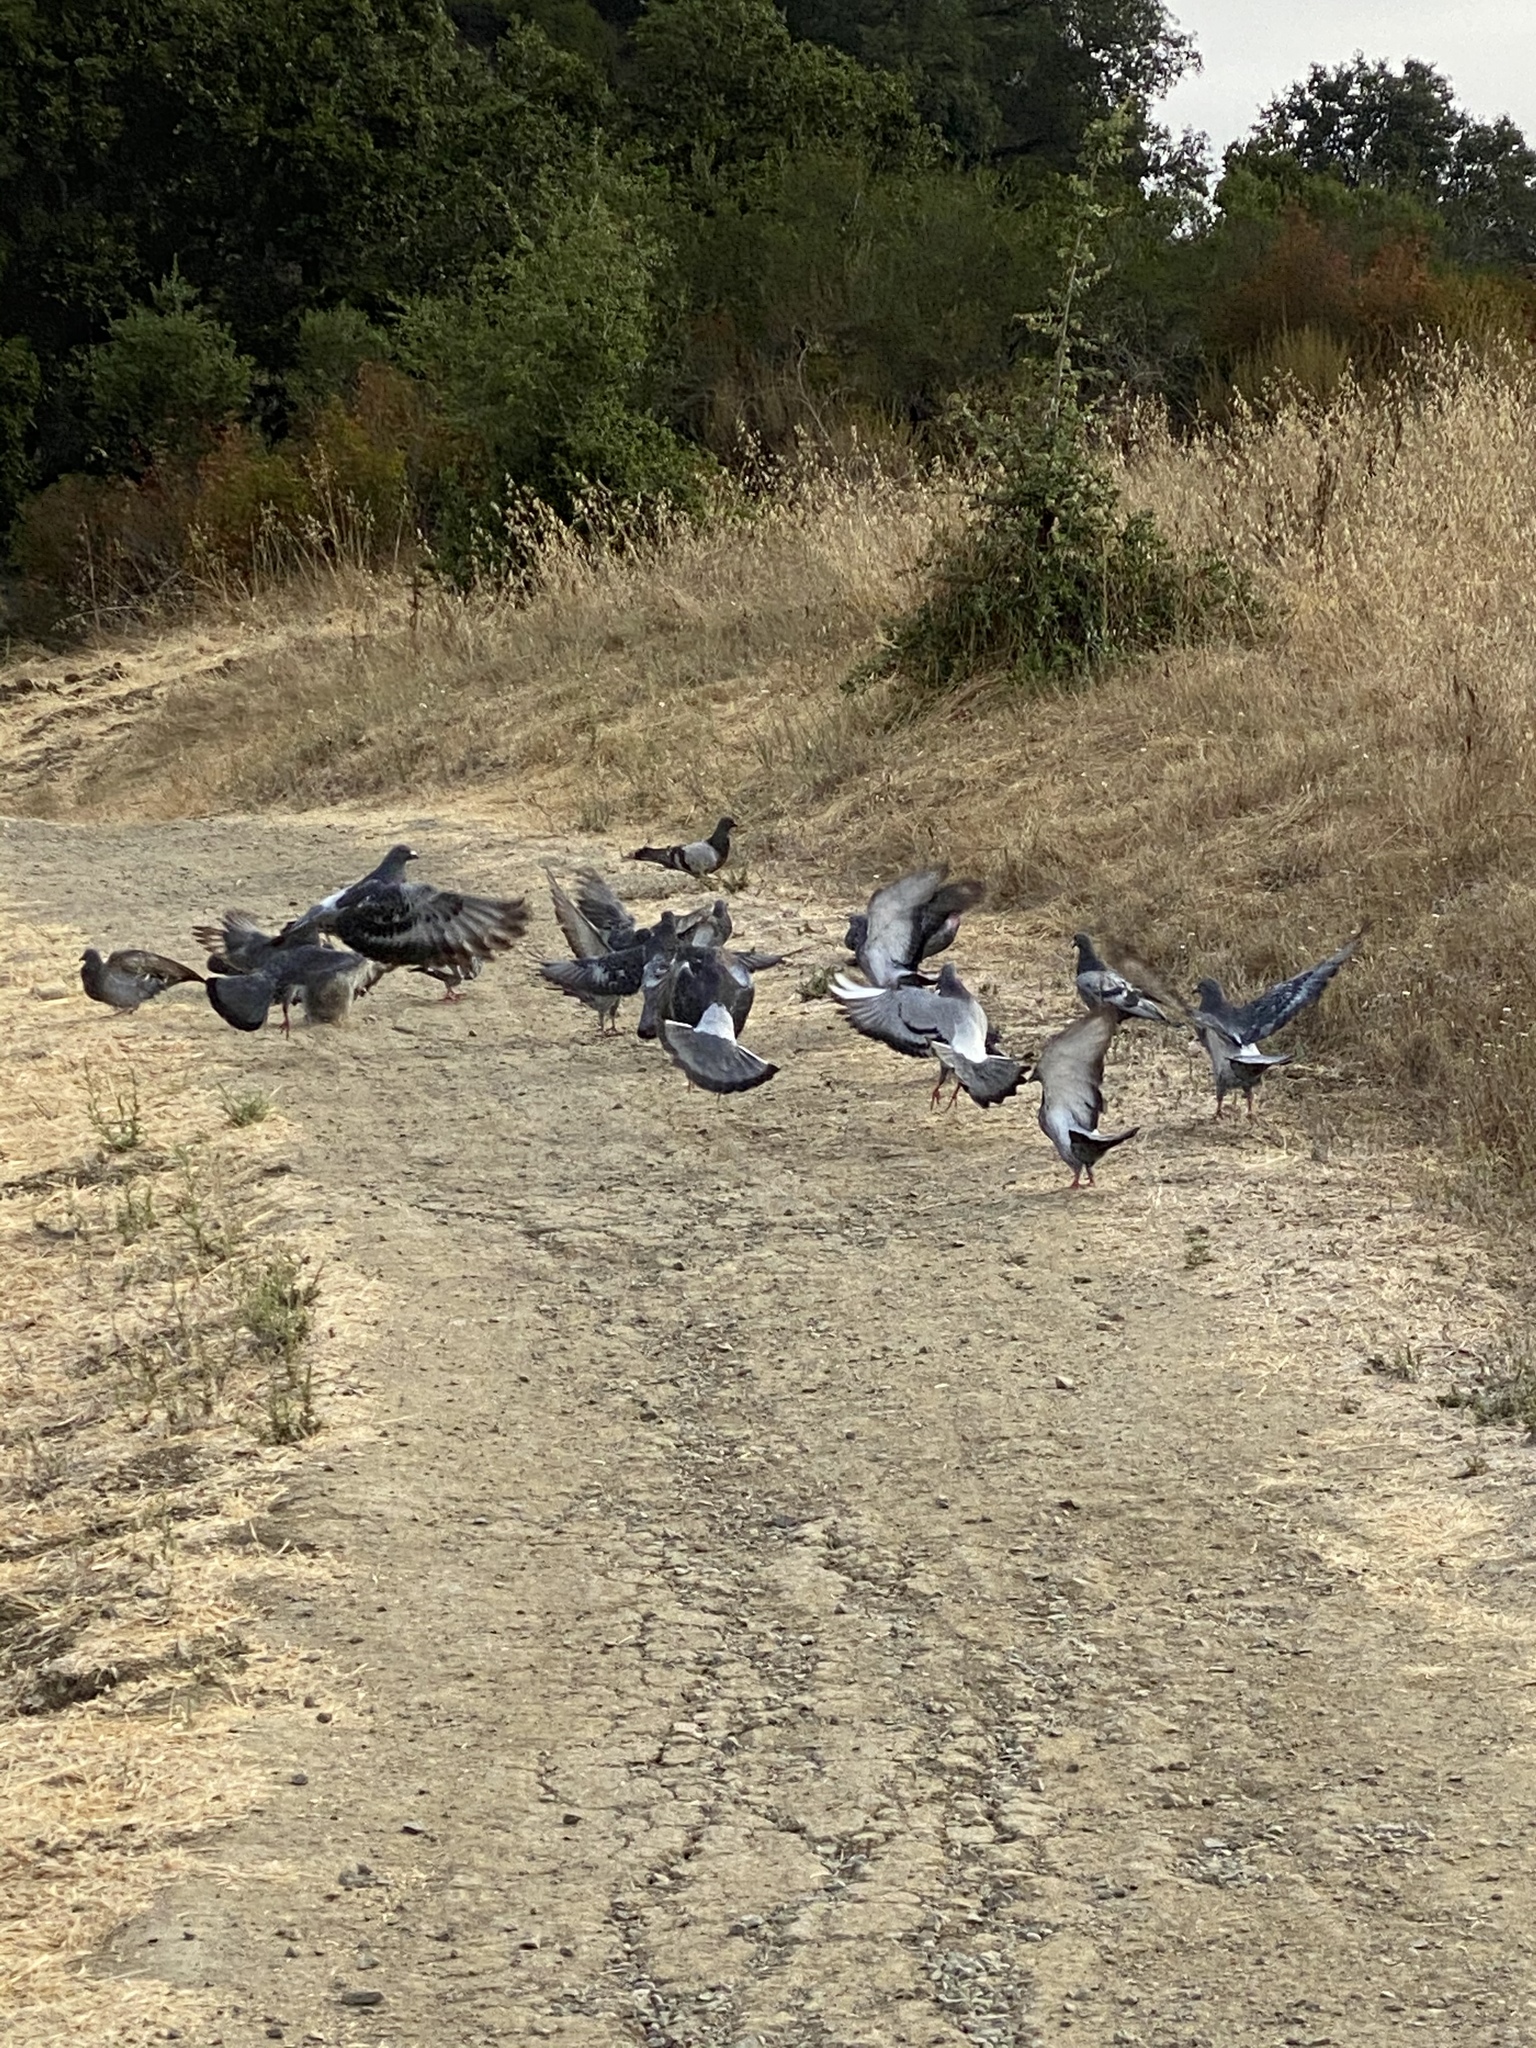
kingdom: Animalia
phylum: Chordata
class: Aves
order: Columbiformes
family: Columbidae
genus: Columba
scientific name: Columba livia
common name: Rock pigeon
